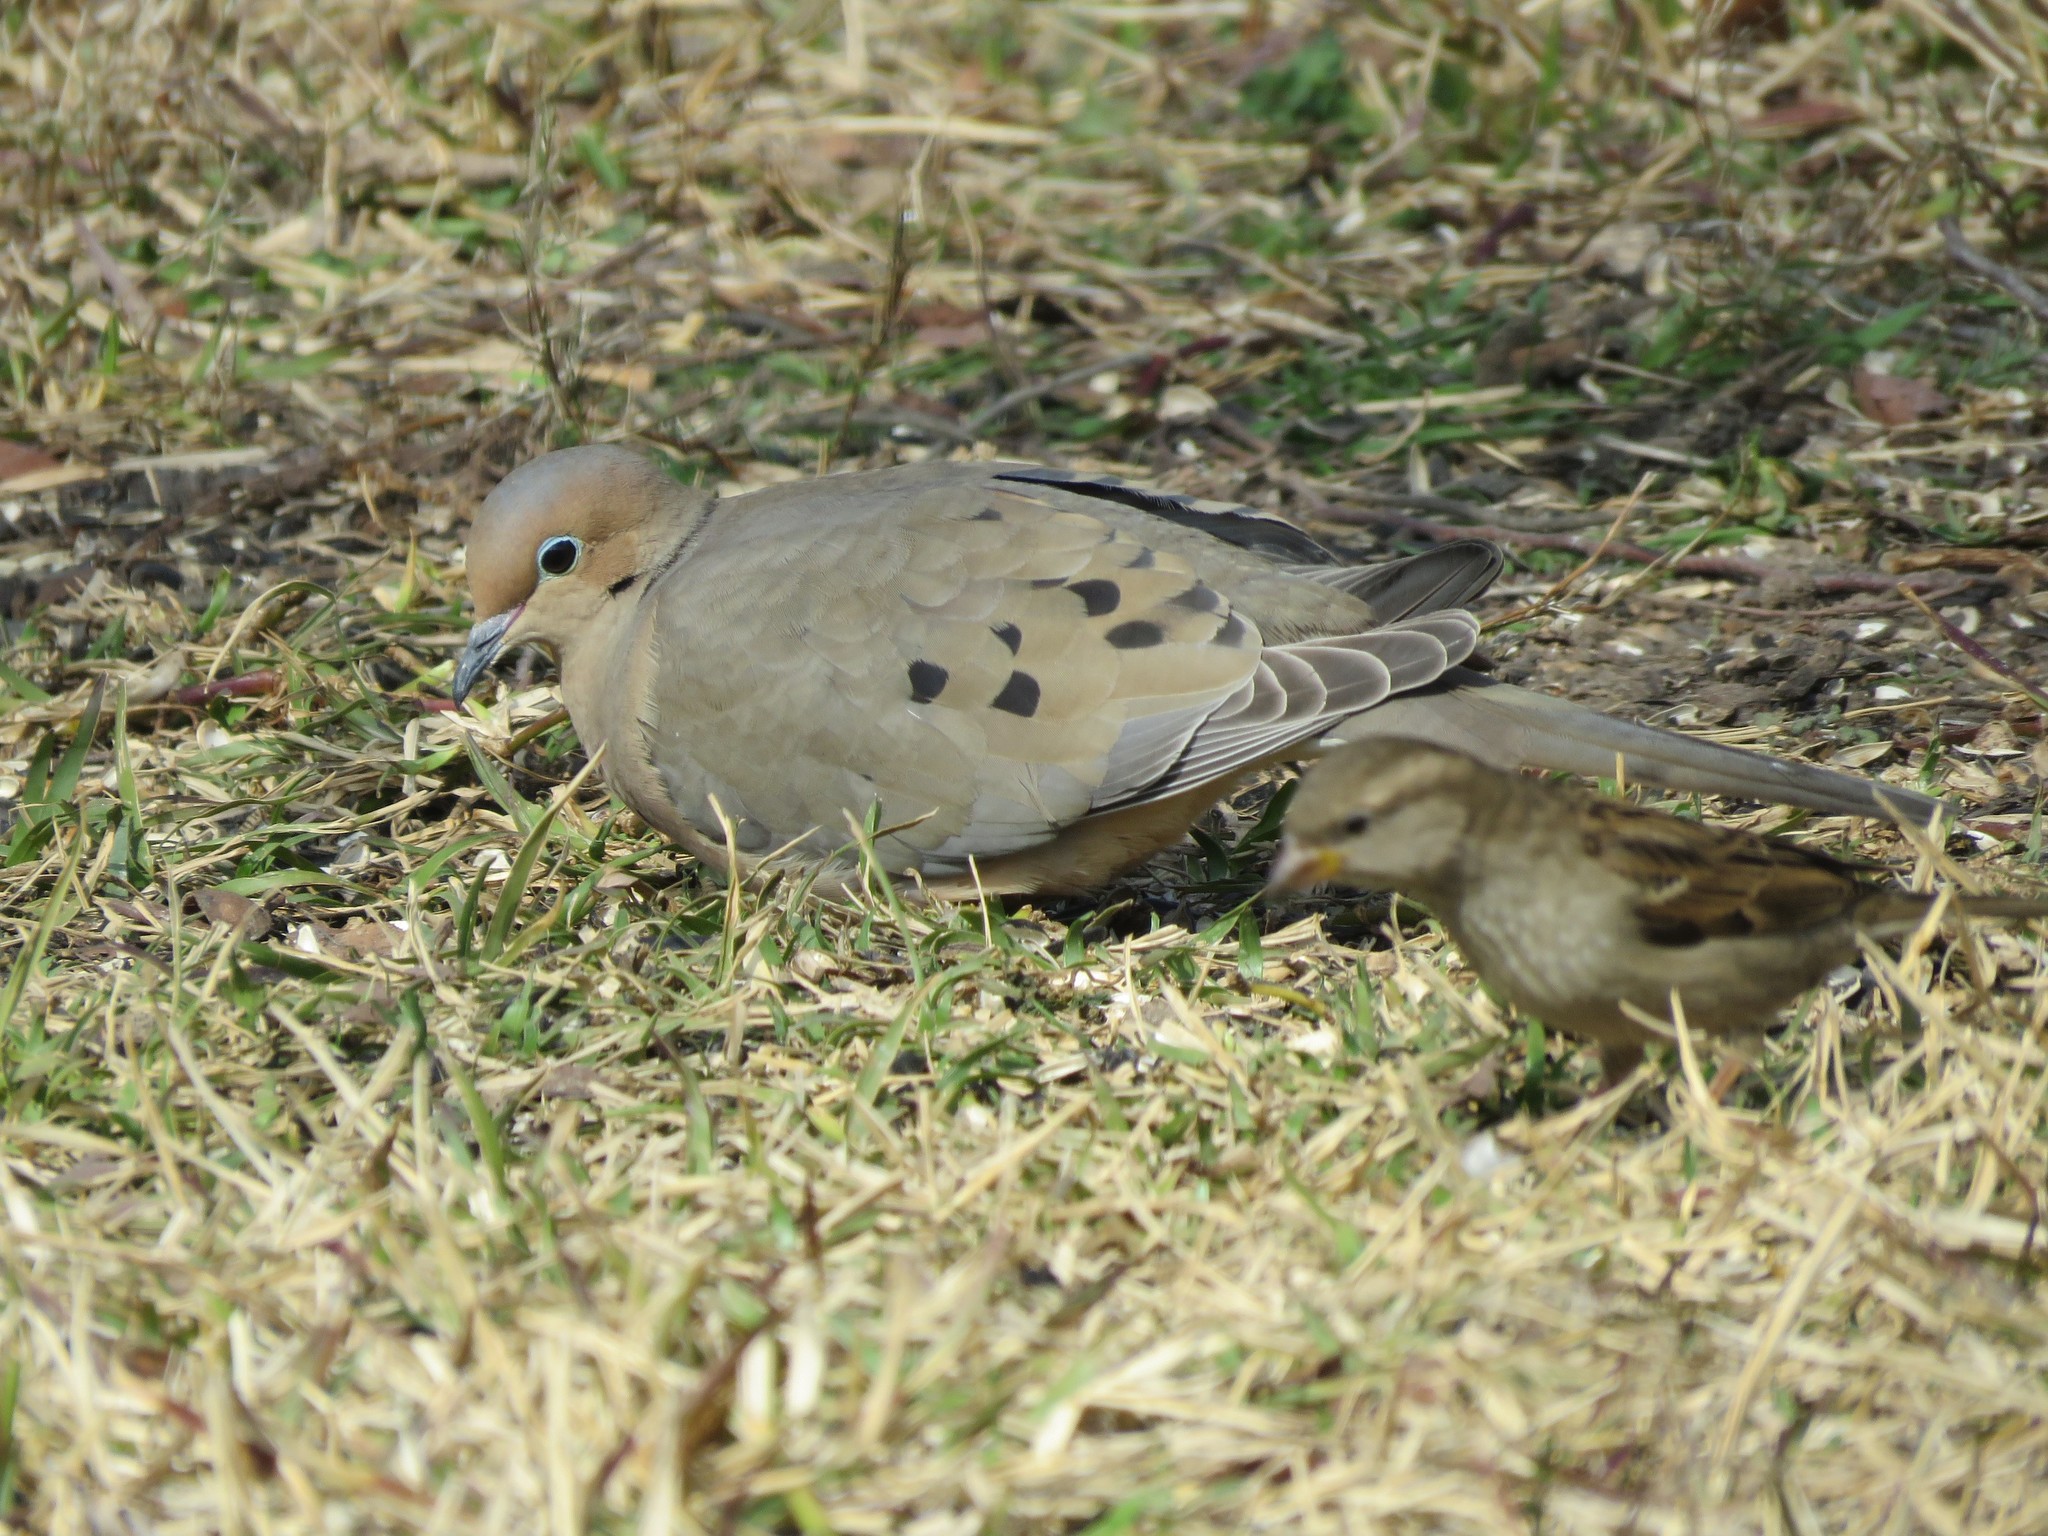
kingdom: Animalia
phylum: Chordata
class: Aves
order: Columbiformes
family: Columbidae
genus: Zenaida
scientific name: Zenaida macroura
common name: Mourning dove
